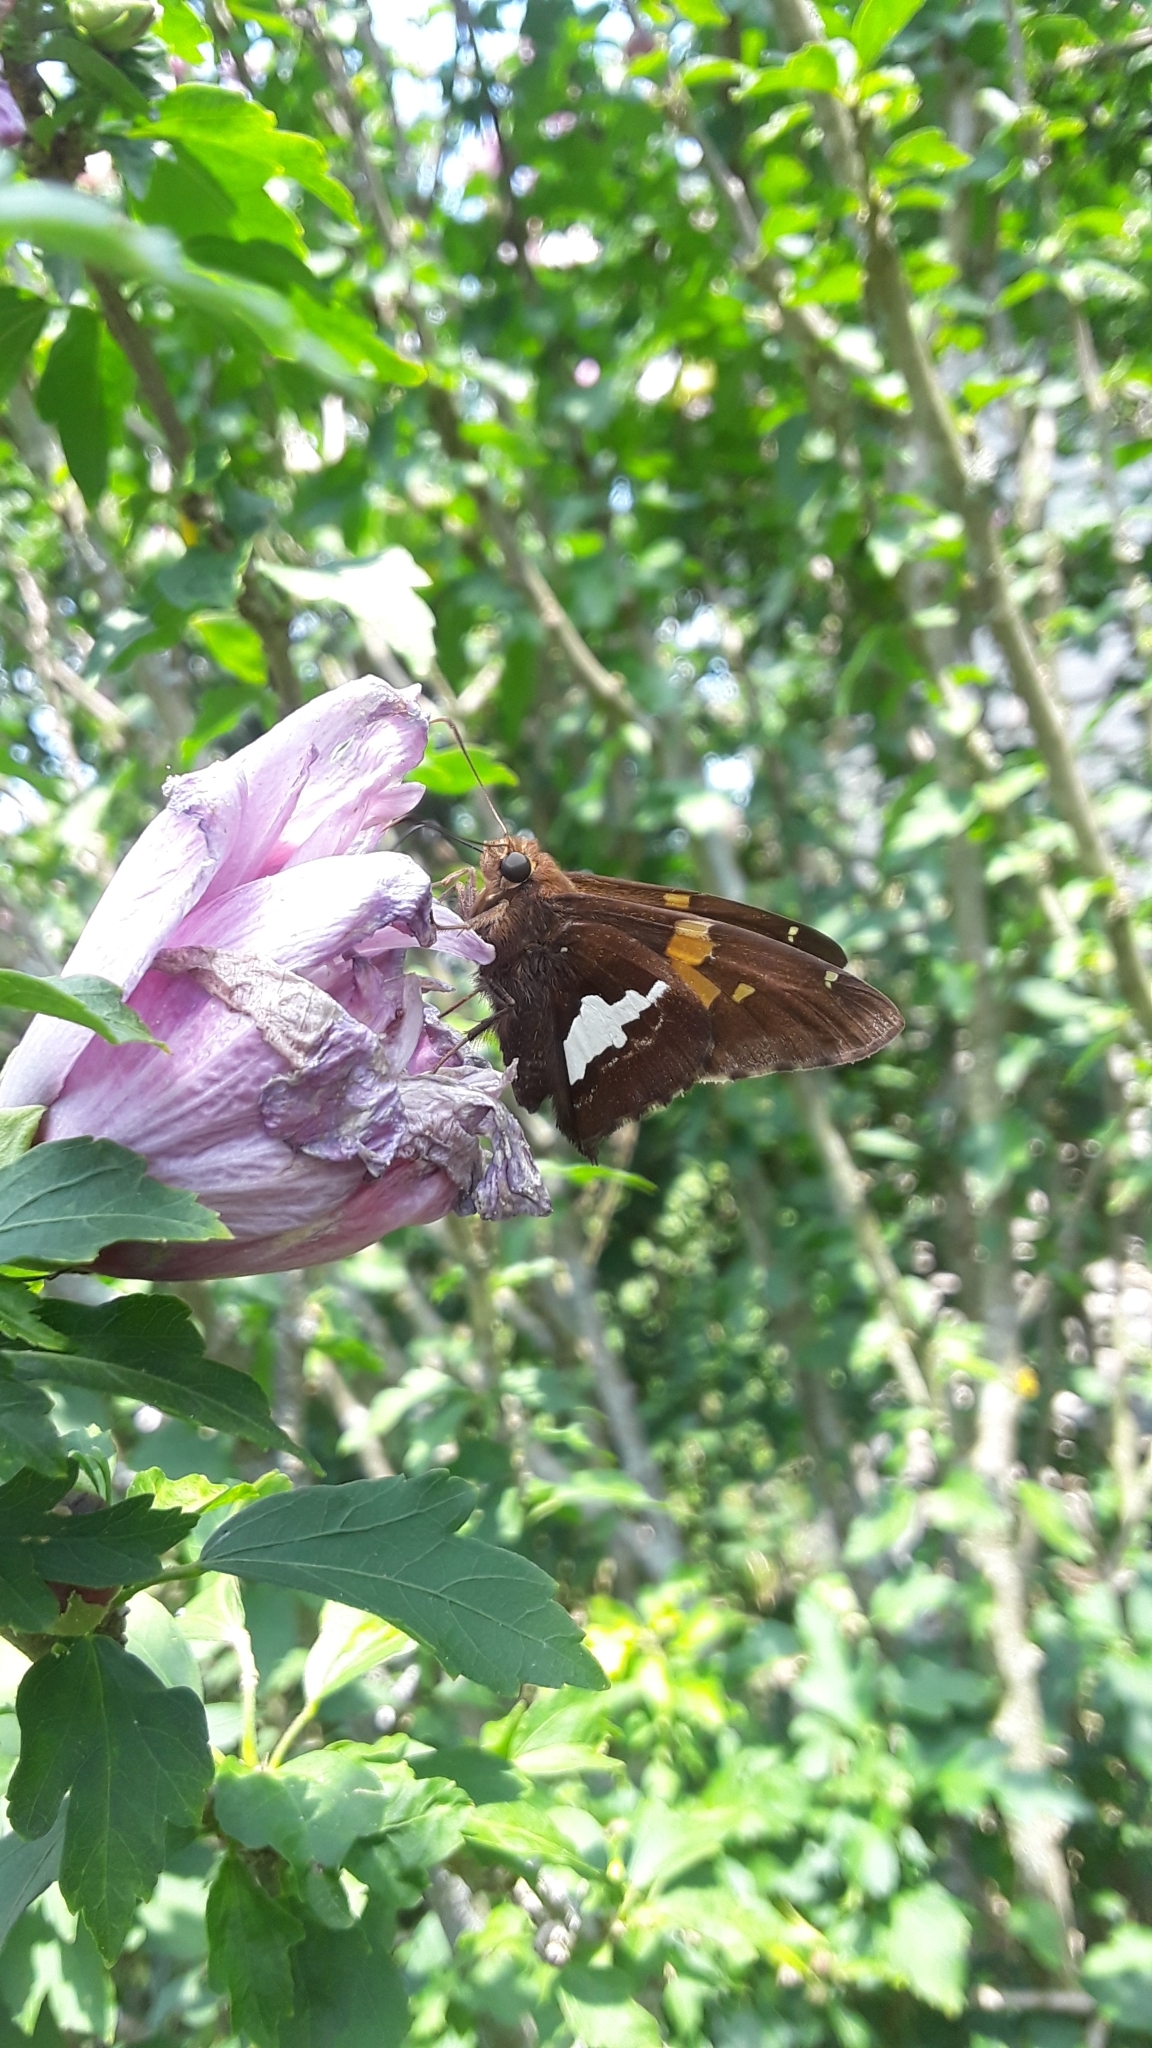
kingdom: Animalia
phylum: Arthropoda
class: Insecta
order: Lepidoptera
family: Hesperiidae
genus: Epargyreus
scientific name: Epargyreus clarus
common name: Silver-spotted skipper
